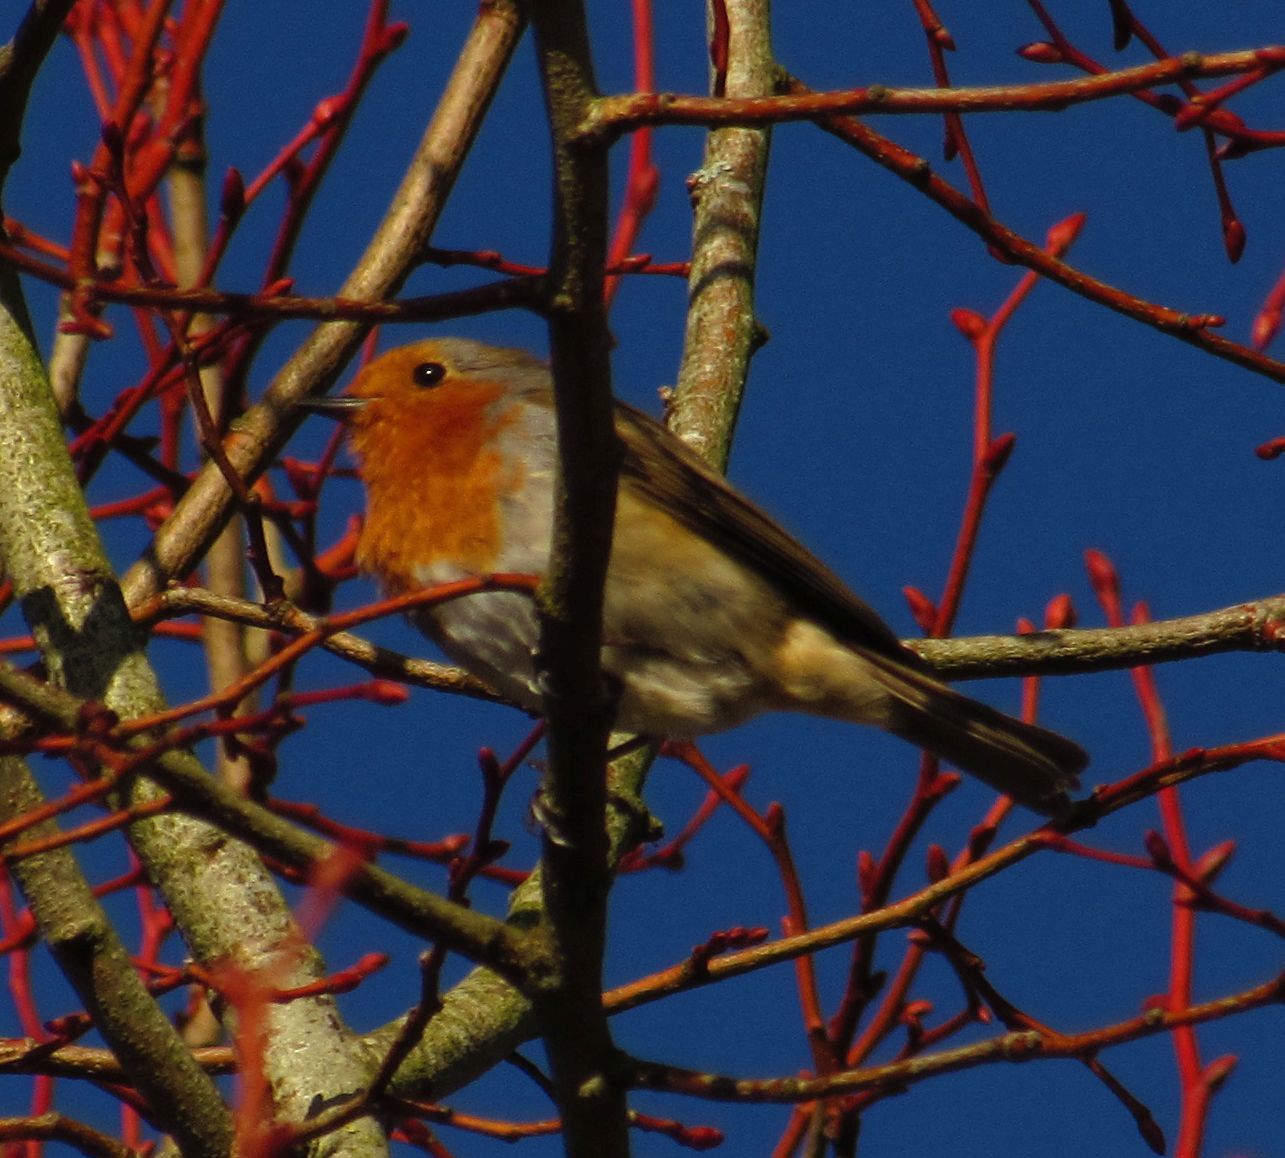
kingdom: Animalia
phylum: Chordata
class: Aves
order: Passeriformes
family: Muscicapidae
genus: Erithacus
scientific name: Erithacus rubecula
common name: European robin
